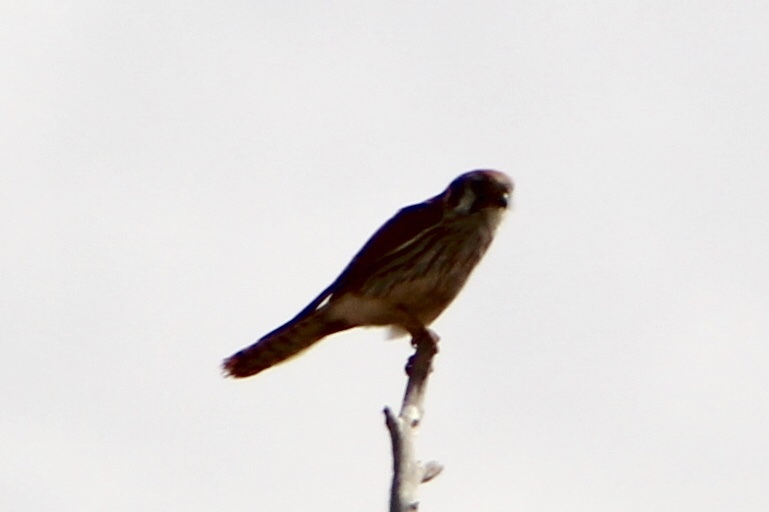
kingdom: Animalia
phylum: Chordata
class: Aves
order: Falconiformes
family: Falconidae
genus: Falco
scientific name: Falco sparverius
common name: American kestrel
